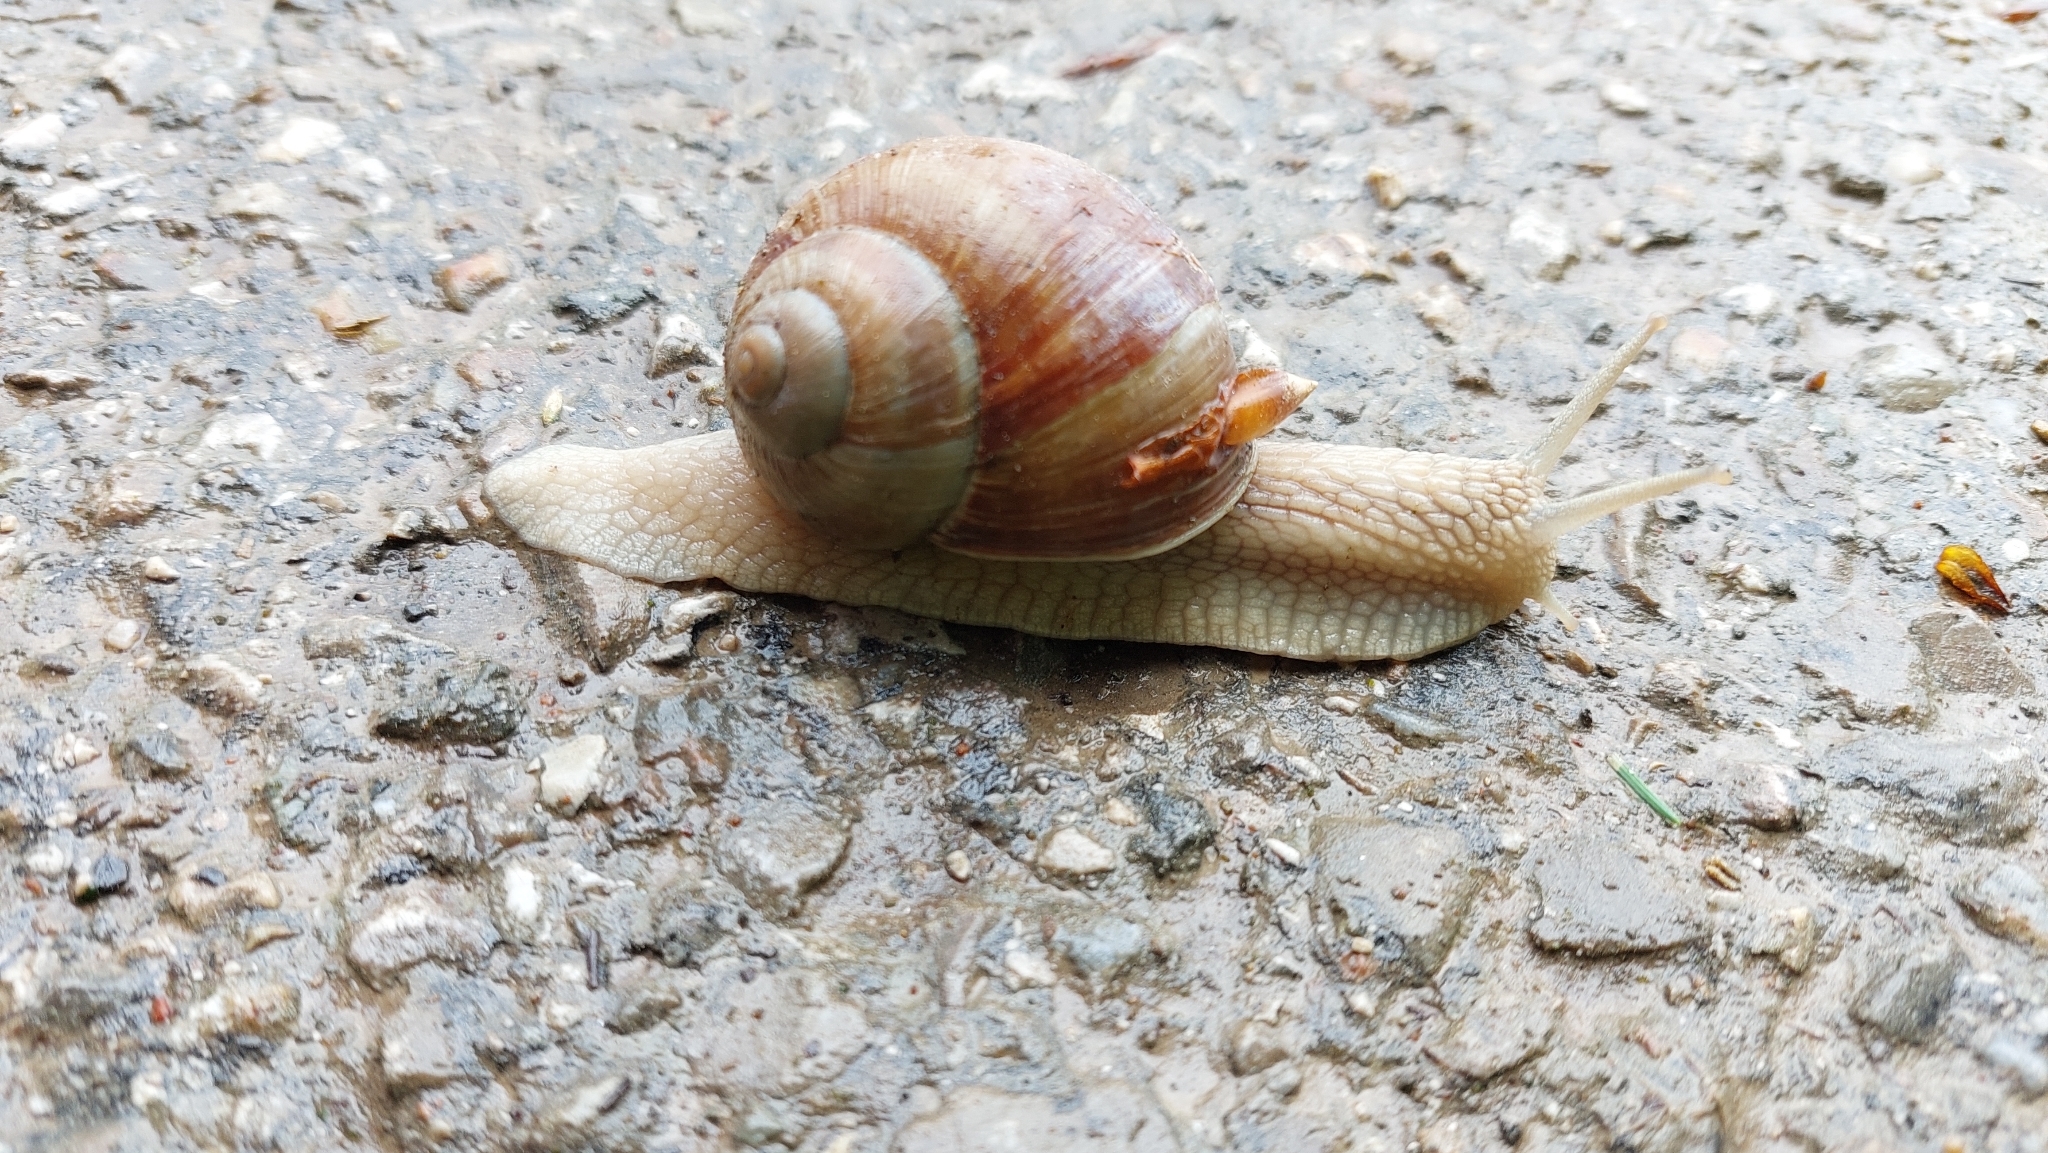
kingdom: Animalia
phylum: Mollusca
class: Gastropoda
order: Stylommatophora
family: Helicidae
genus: Helix
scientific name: Helix pomatia
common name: Roman snail
